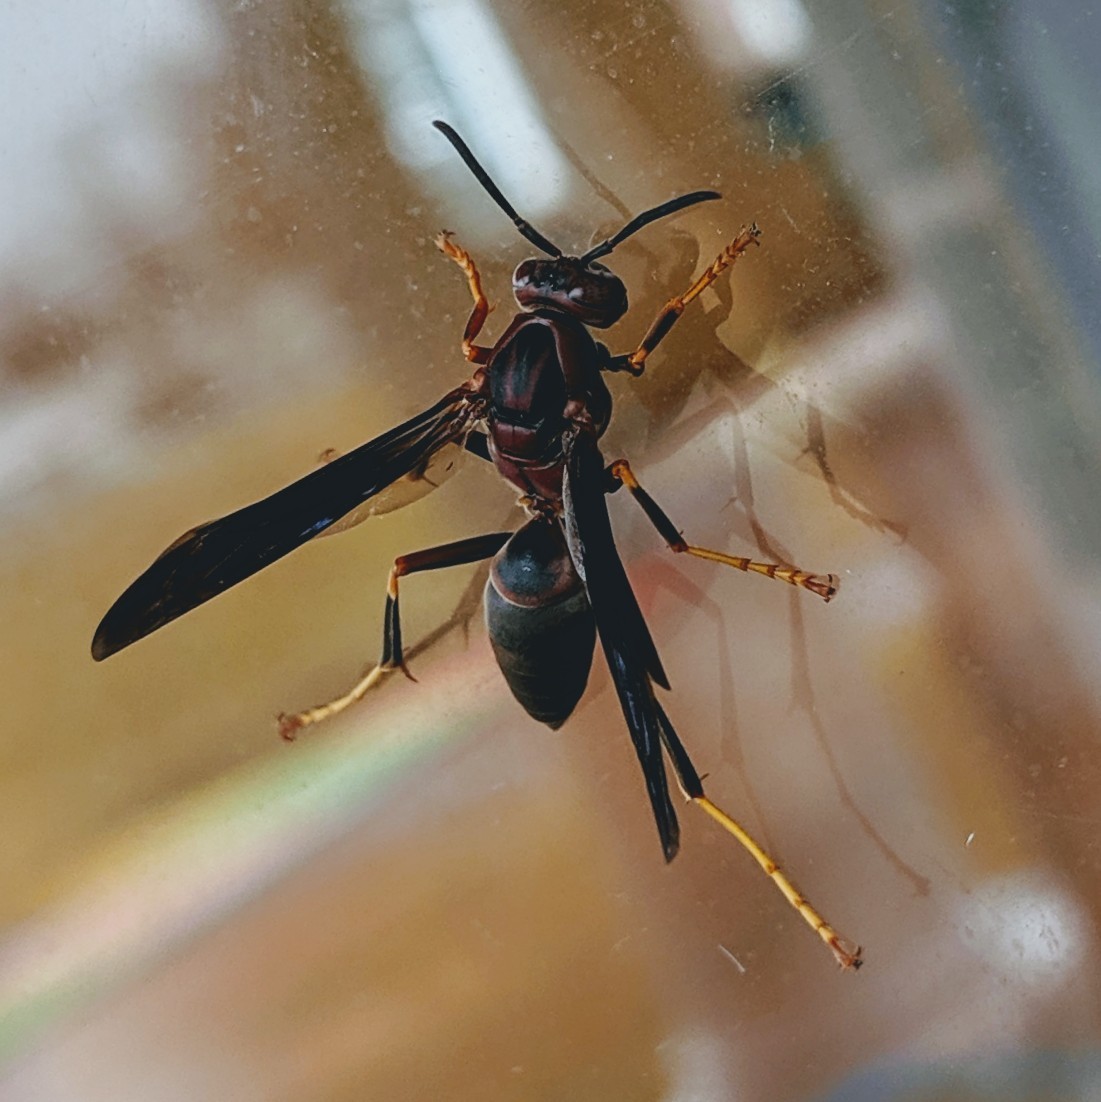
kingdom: Animalia
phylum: Arthropoda
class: Insecta
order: Hymenoptera
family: Eumenidae
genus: Polistes
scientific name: Polistes metricus
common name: Metric paper wasp
